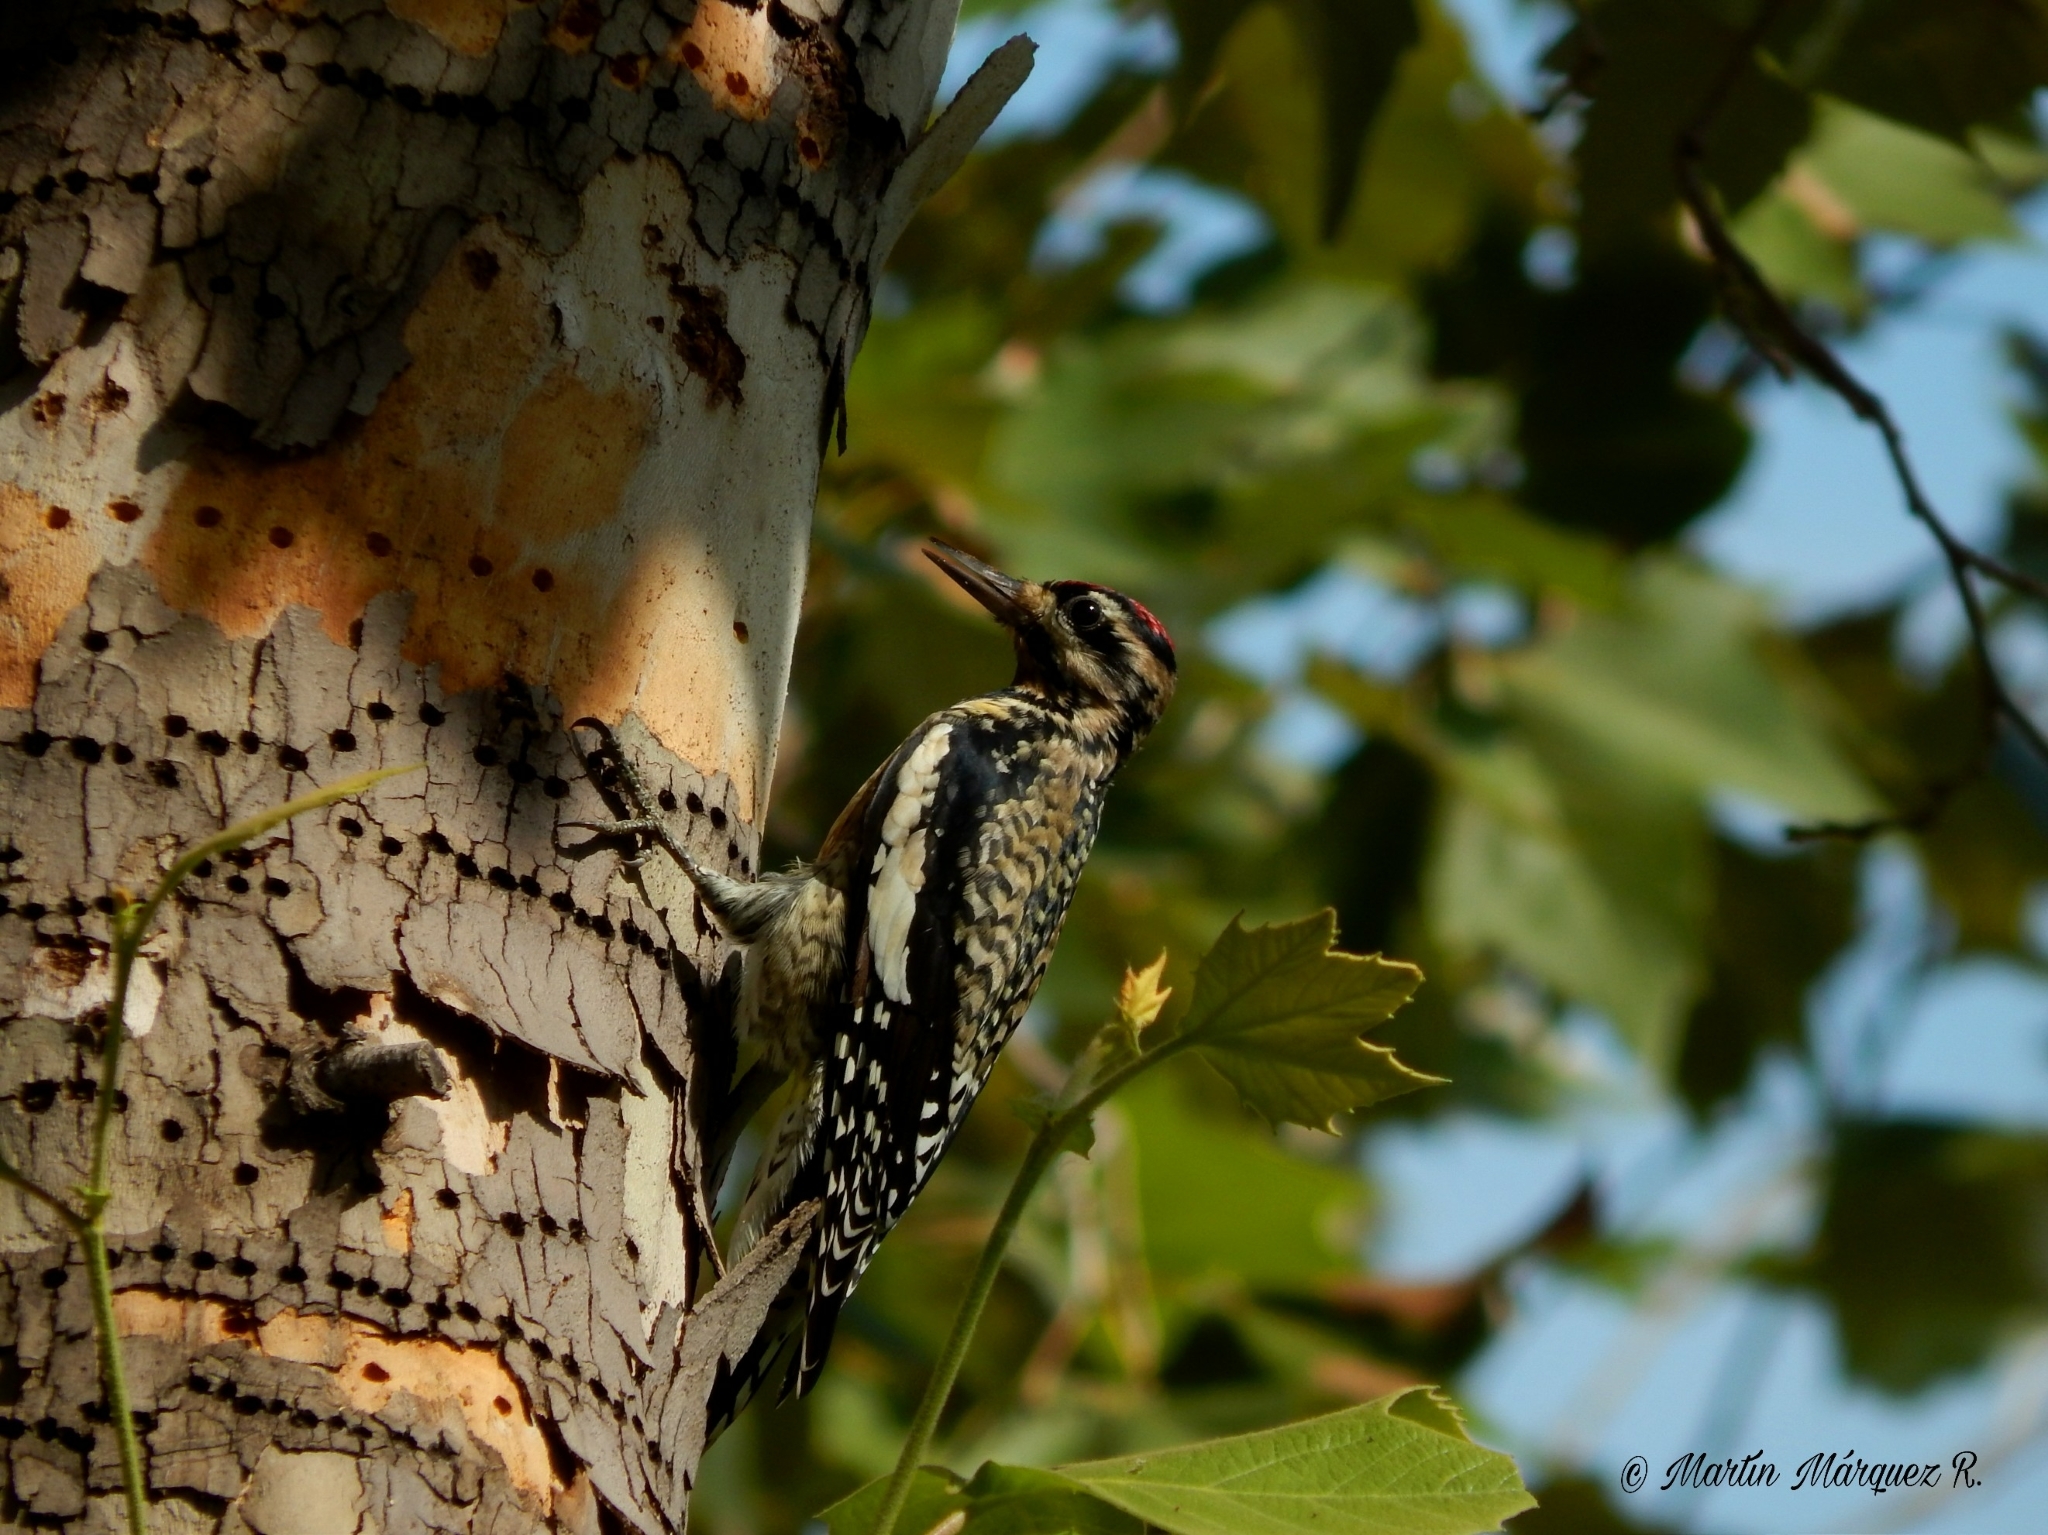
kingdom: Animalia
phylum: Chordata
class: Aves
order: Piciformes
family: Picidae
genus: Sphyrapicus
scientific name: Sphyrapicus varius
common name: Yellow-bellied sapsucker
